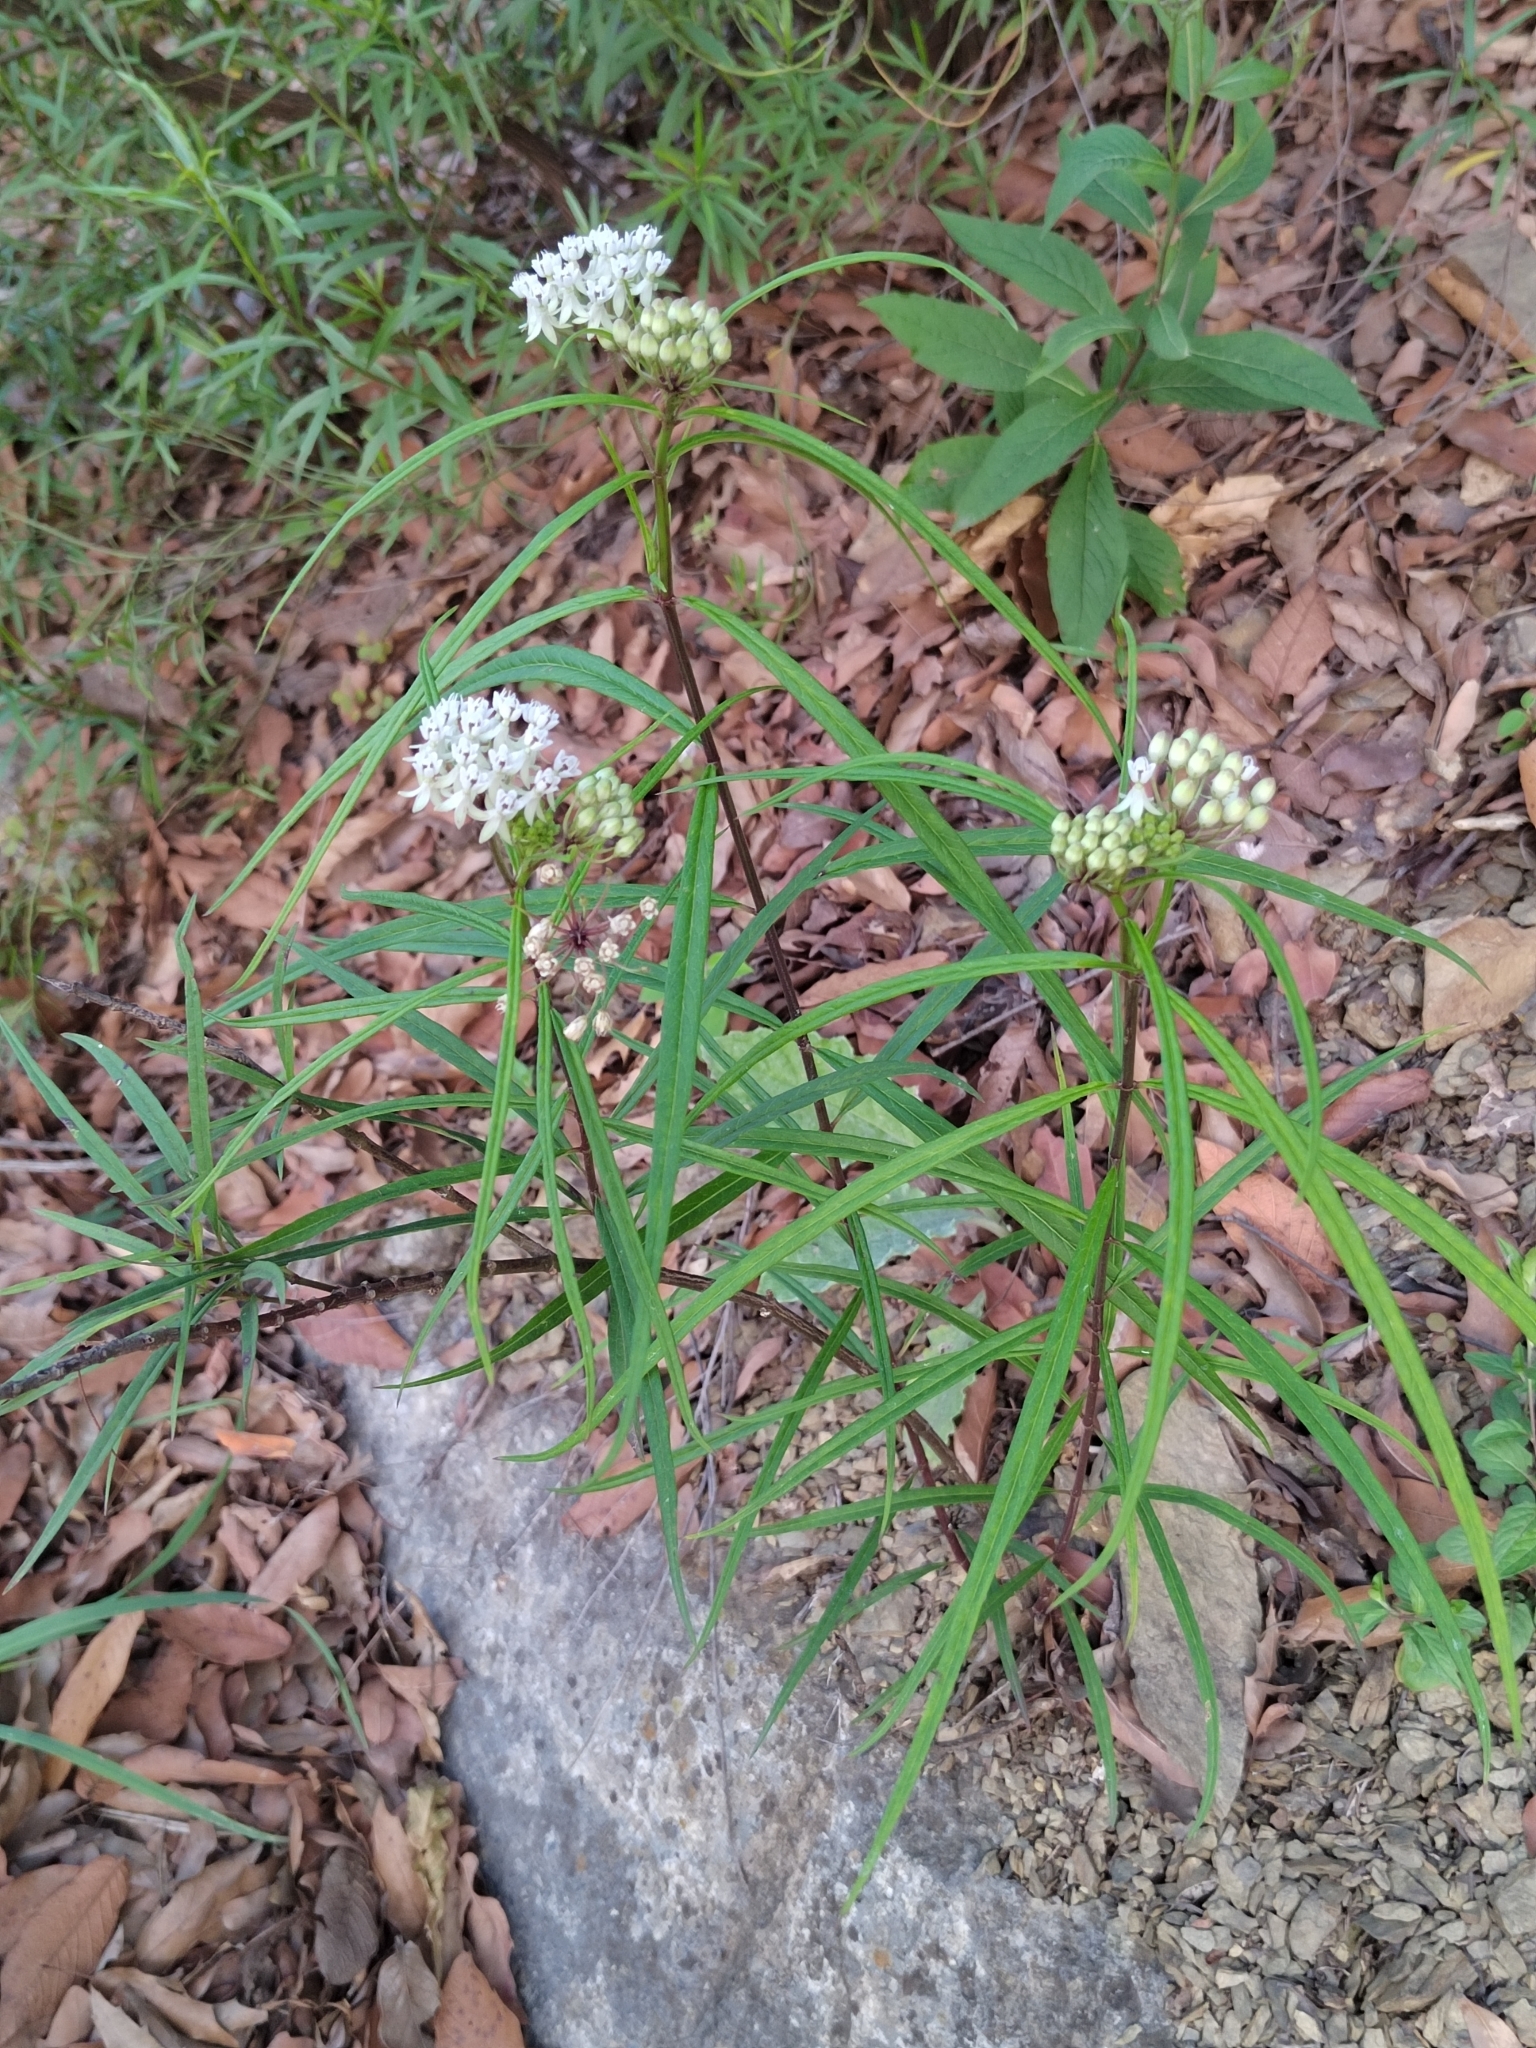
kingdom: Plantae
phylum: Tracheophyta
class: Magnoliopsida
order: Gentianales
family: Apocynaceae
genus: Asclepias
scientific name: Asclepias angustifolia
